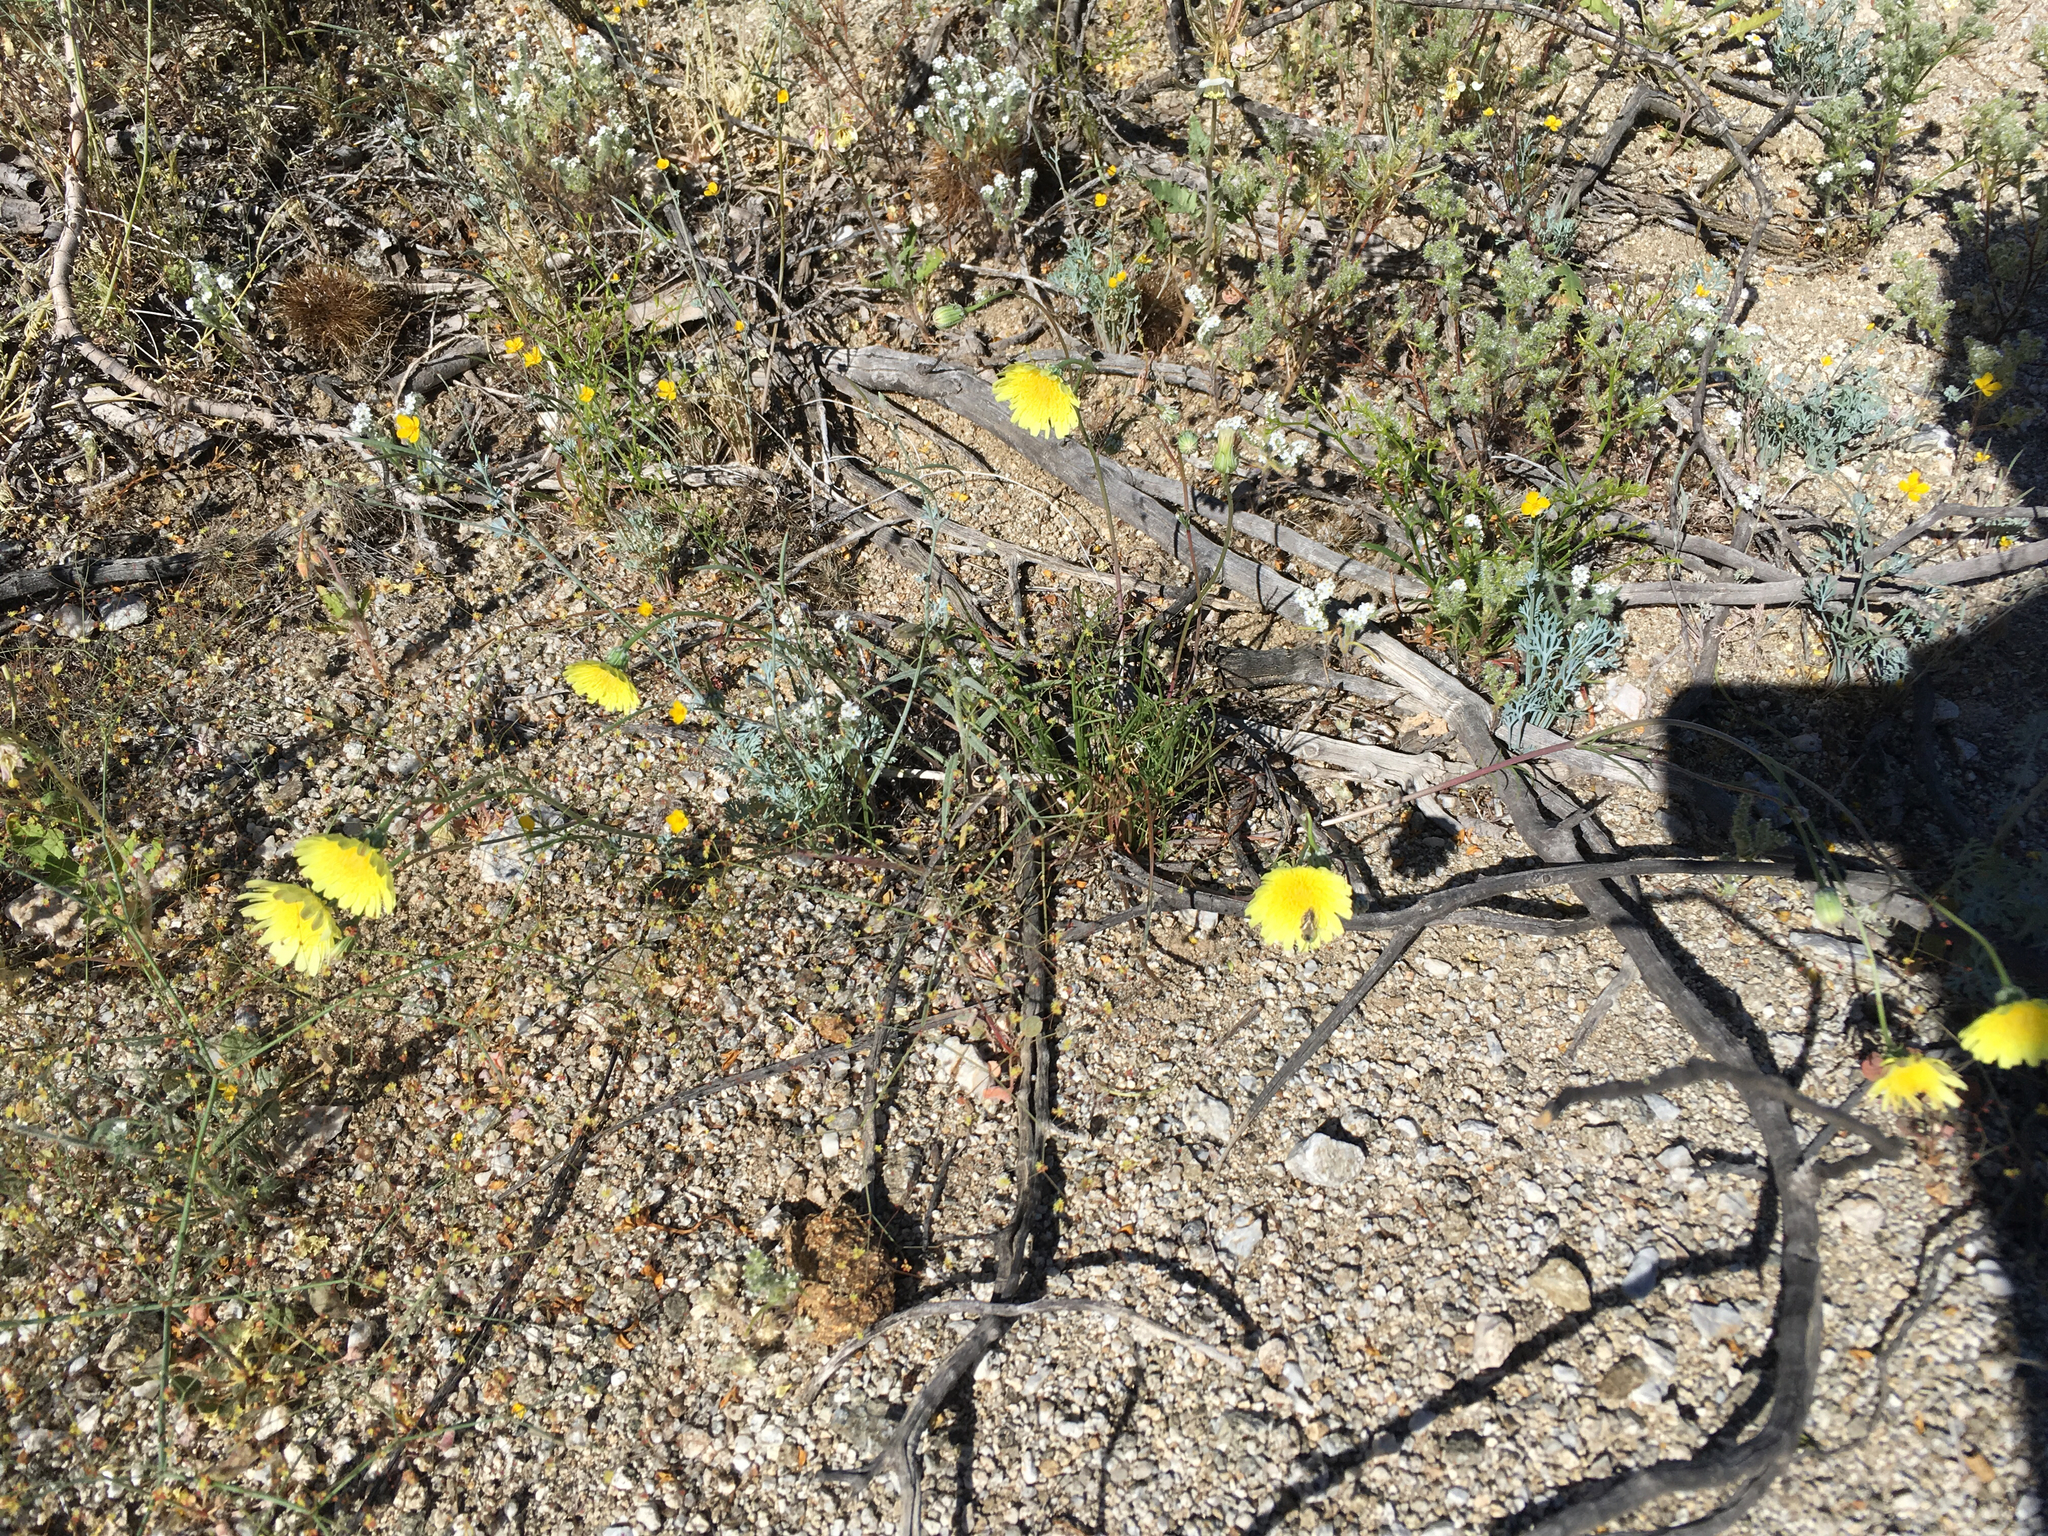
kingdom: Plantae
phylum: Tracheophyta
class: Magnoliopsida
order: Asterales
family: Asteraceae
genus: Malacothrix
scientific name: Malacothrix glabrata
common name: Smooth desert-dandelion
